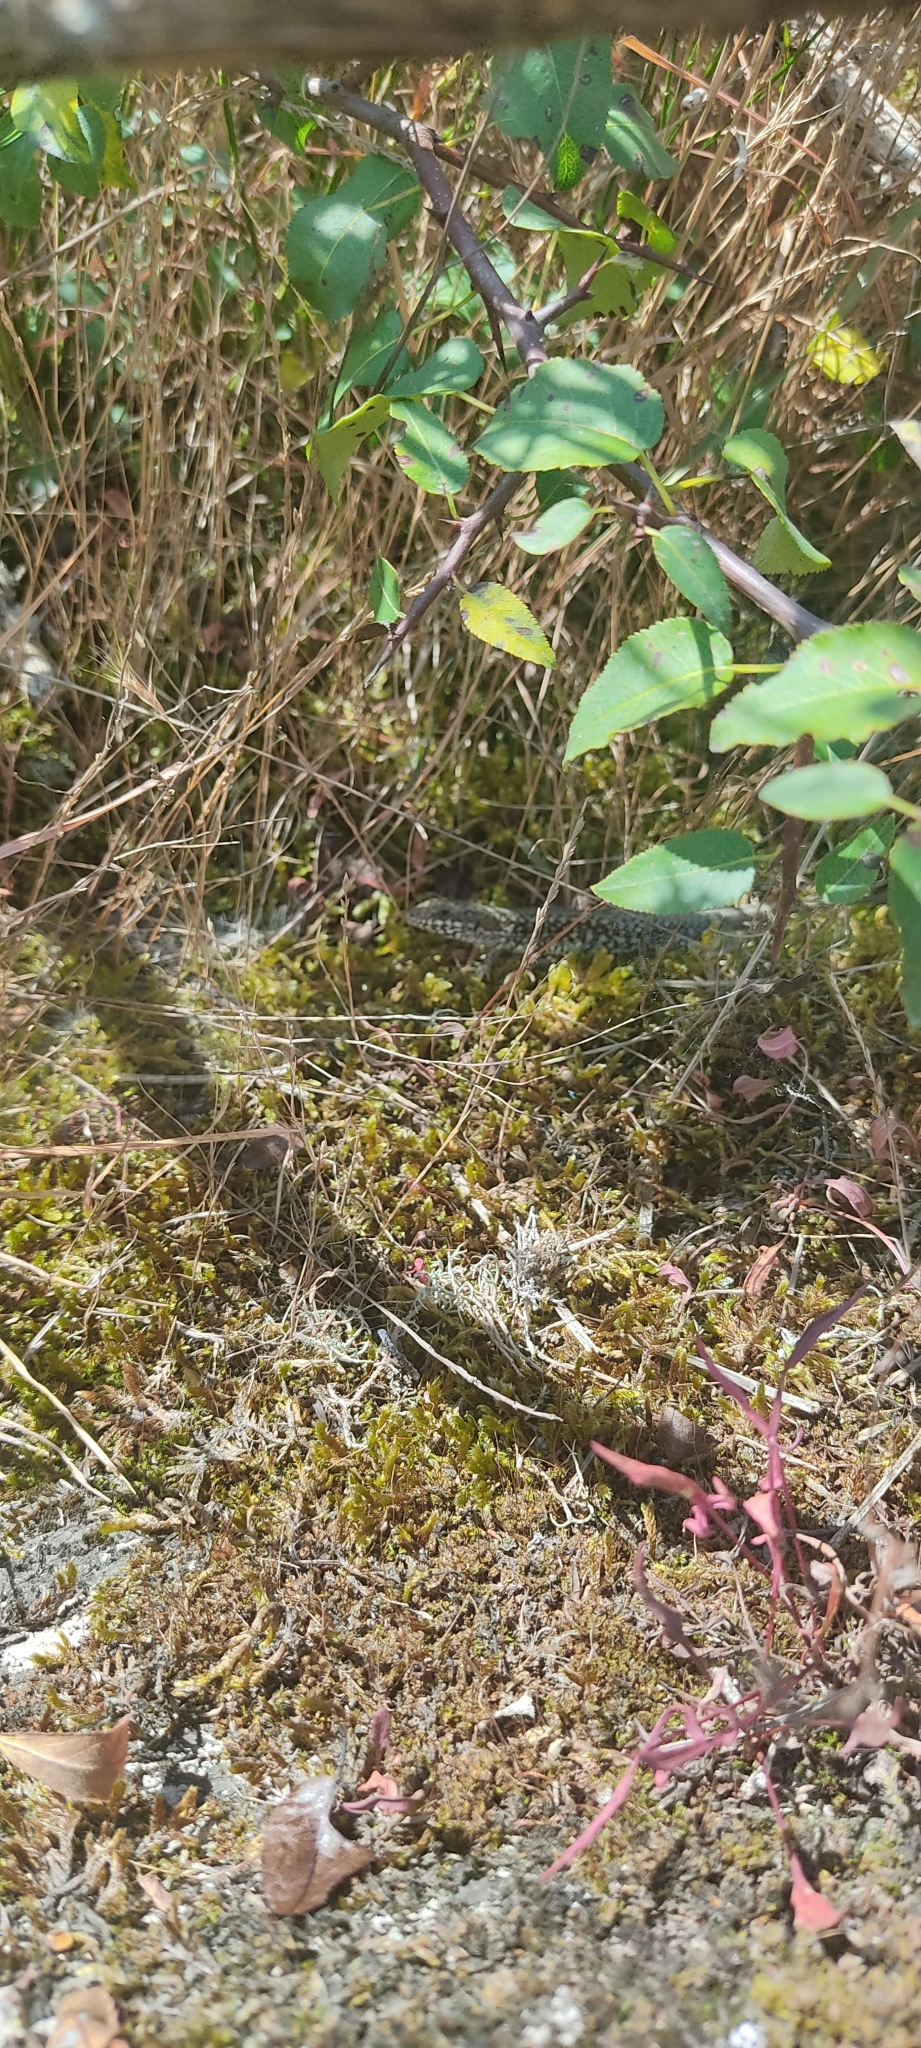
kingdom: Animalia
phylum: Chordata
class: Squamata
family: Lacertidae
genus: Podarcis
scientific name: Podarcis muralis
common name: Common wall lizard
